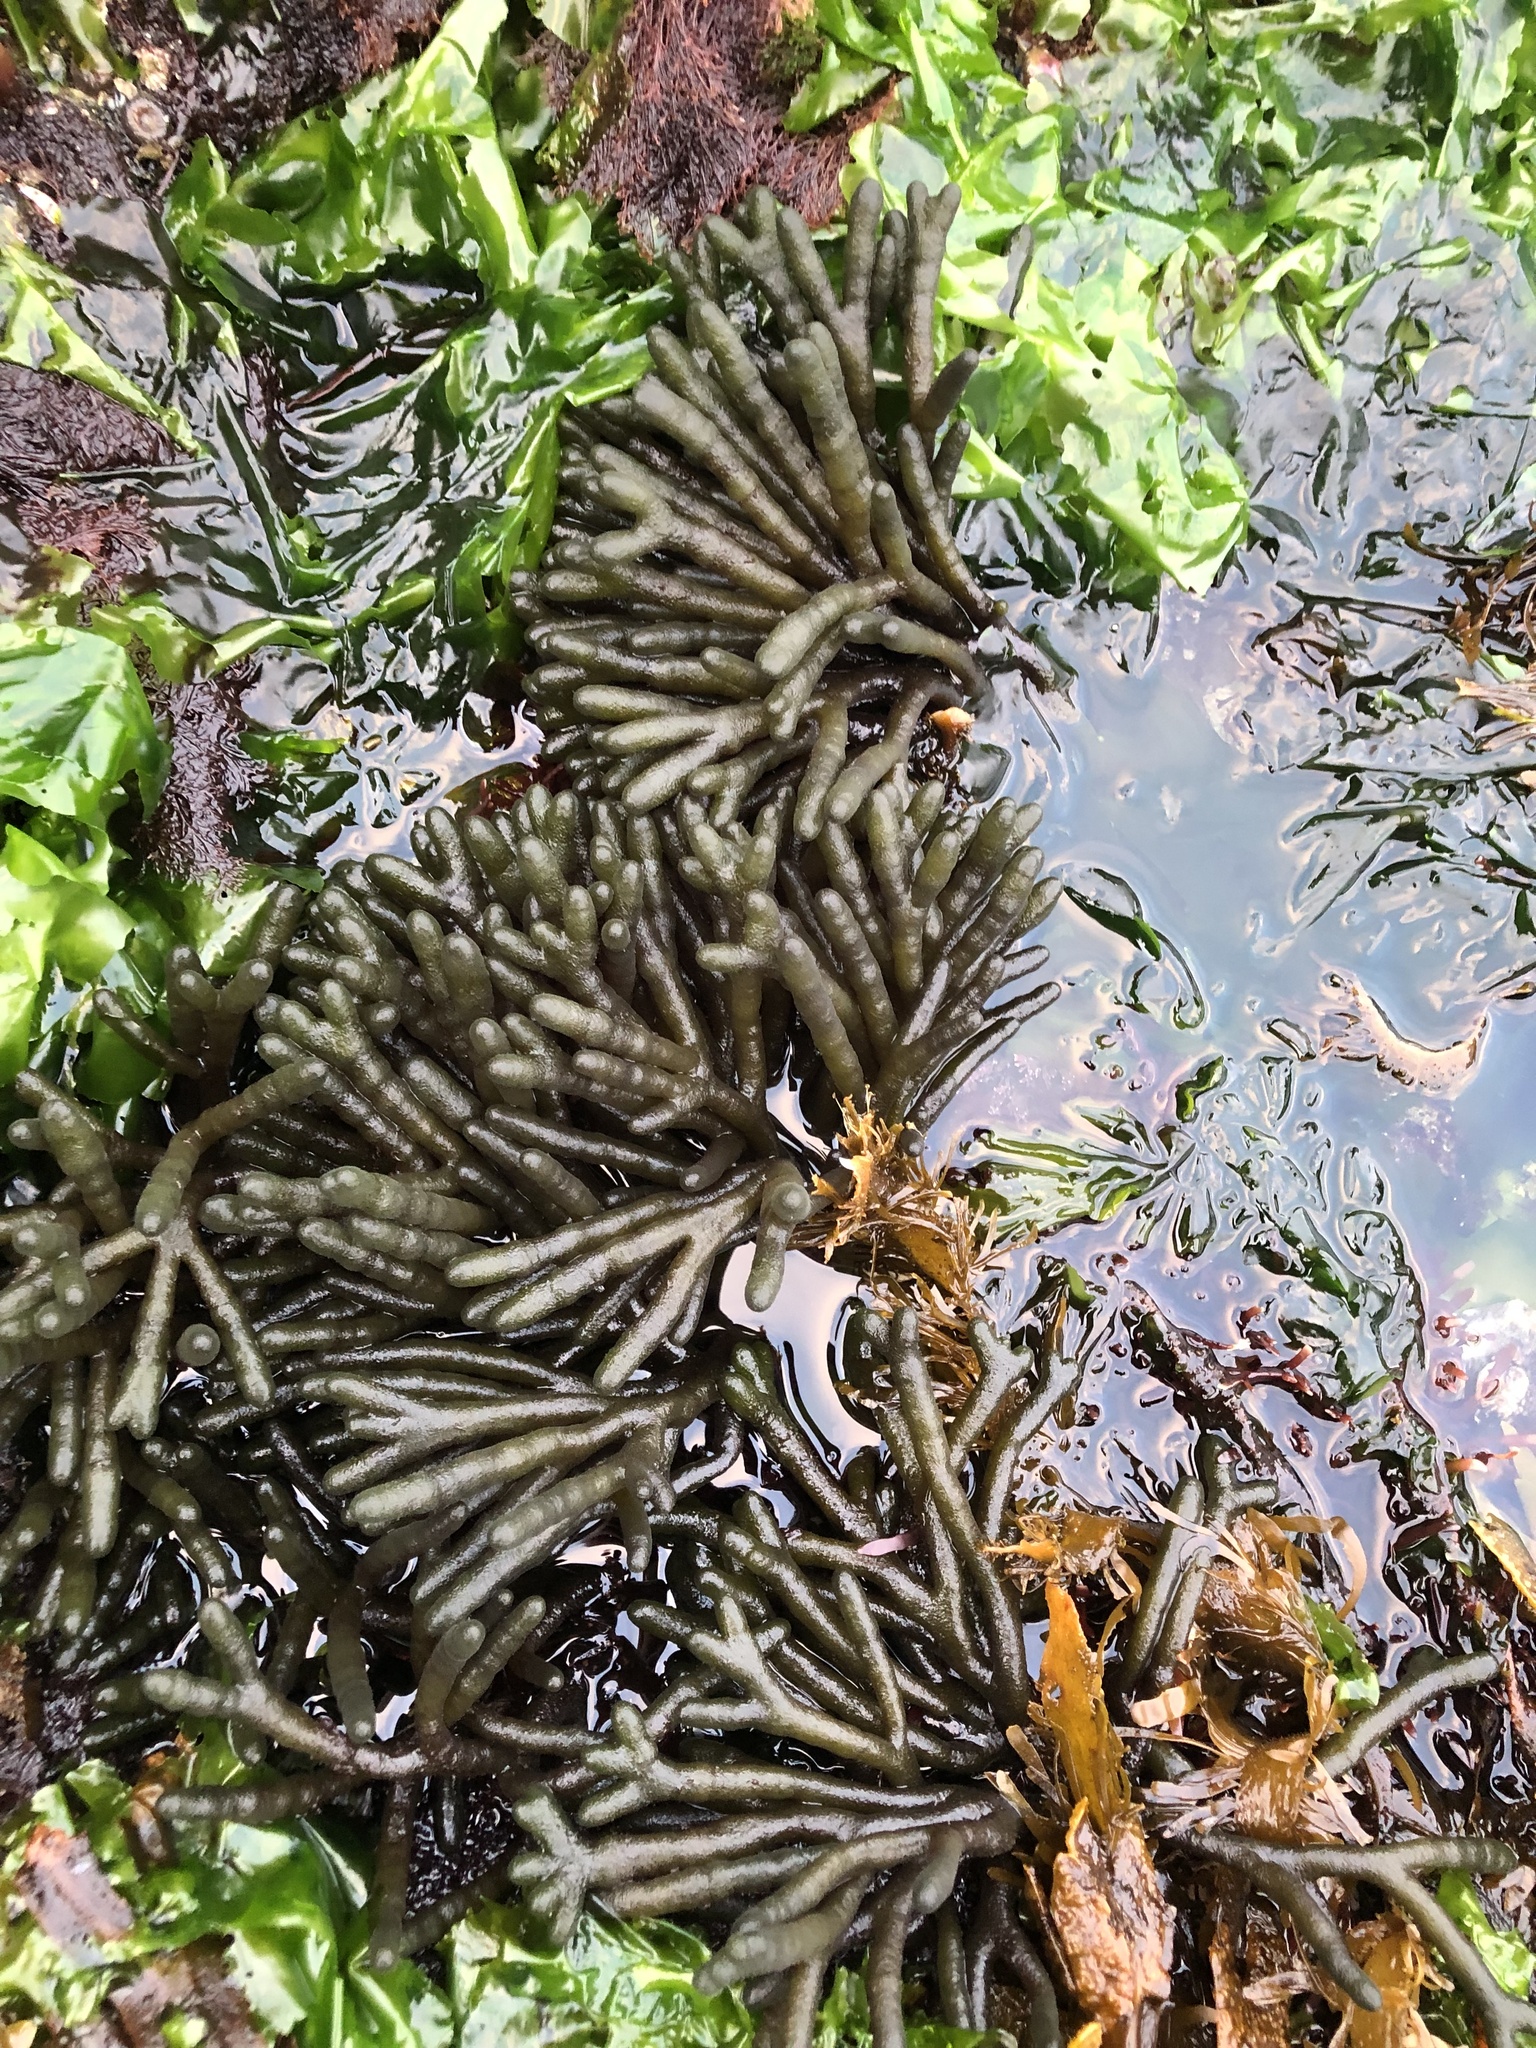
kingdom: Plantae
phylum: Chlorophyta
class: Ulvophyceae
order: Bryopsidales
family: Codiaceae
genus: Codium
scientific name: Codium fragile
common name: Dead man's fingers
